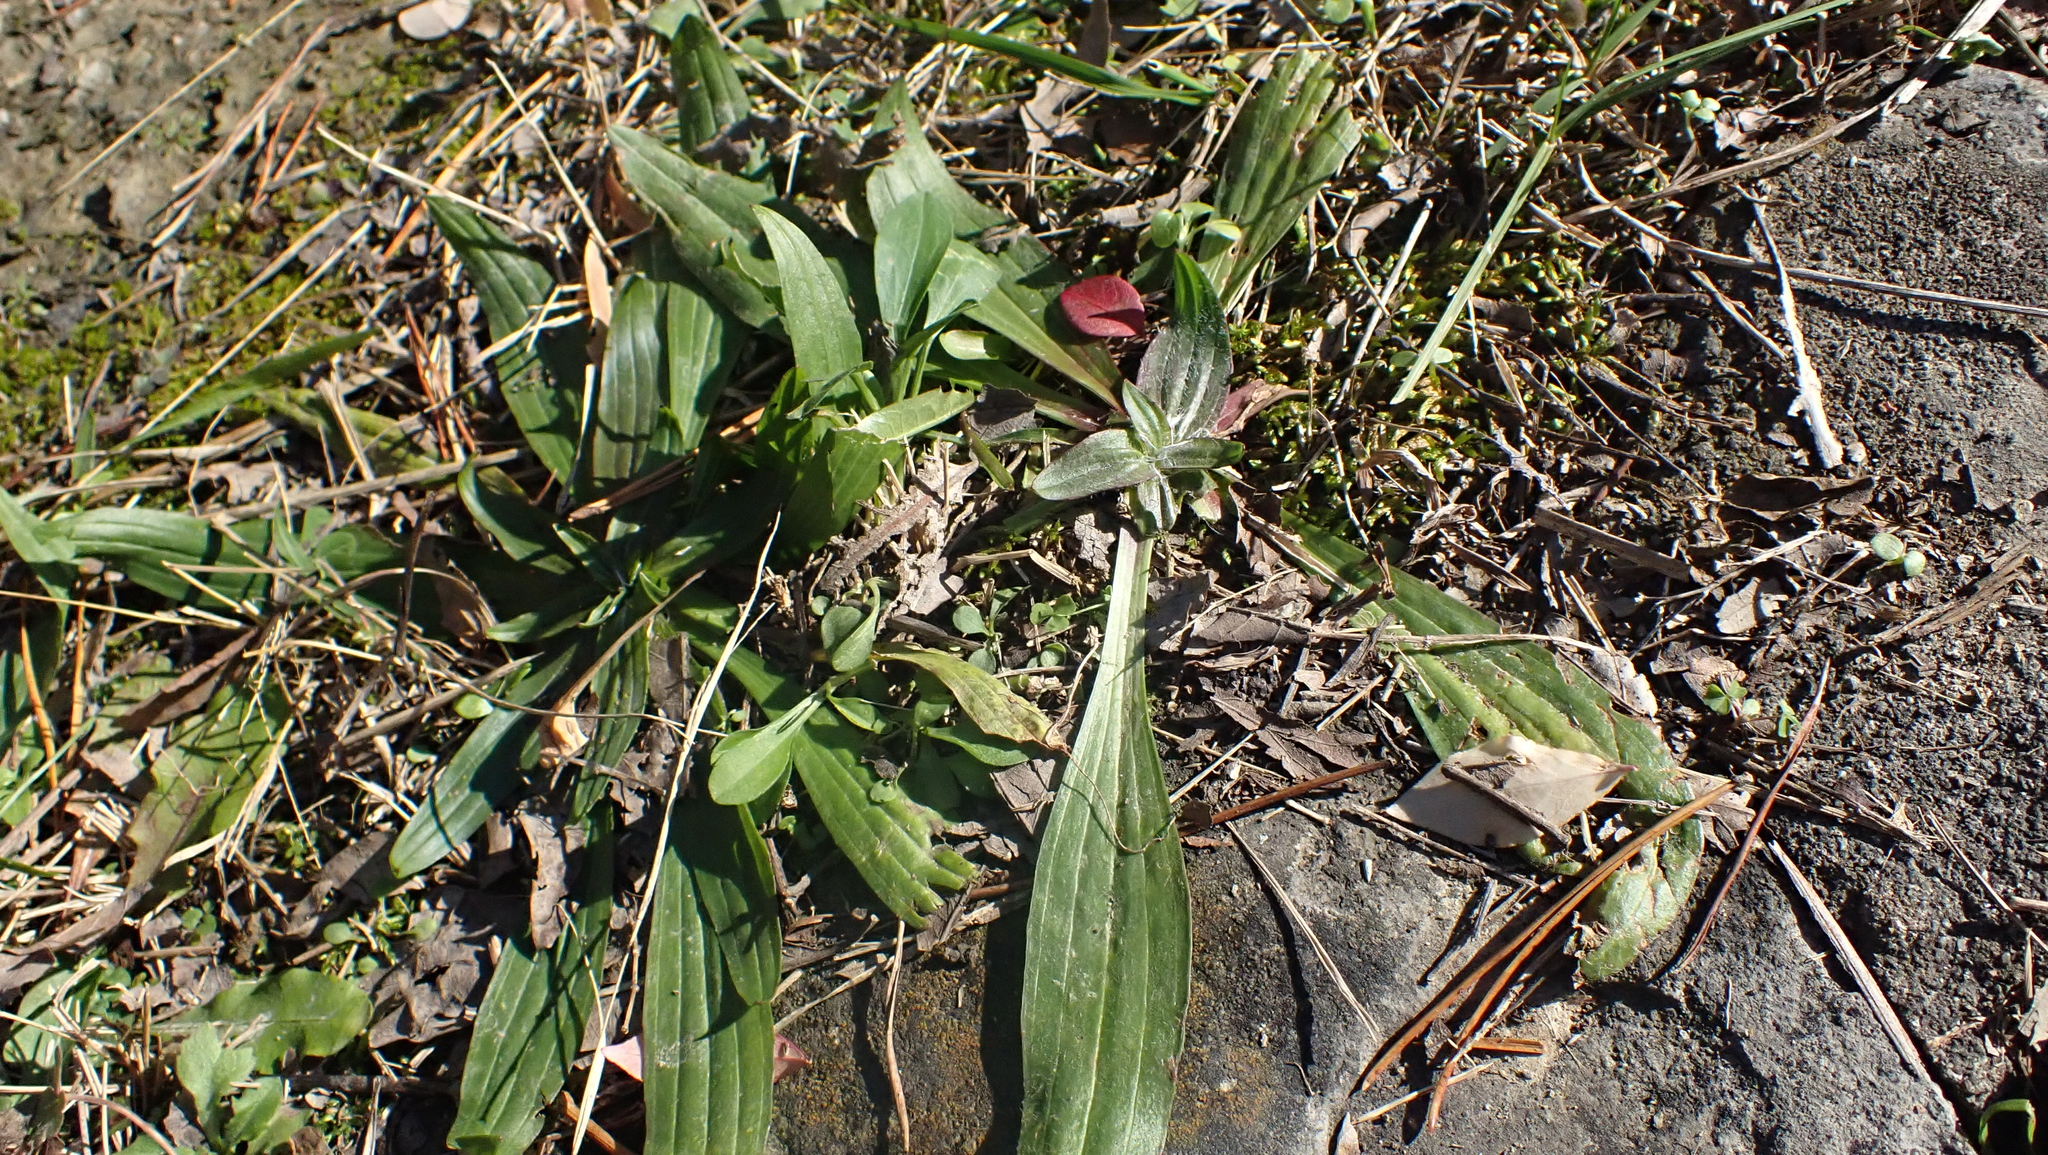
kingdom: Plantae
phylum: Tracheophyta
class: Magnoliopsida
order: Lamiales
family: Plantaginaceae
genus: Plantago
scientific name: Plantago lanceolata
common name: Ribwort plantain
